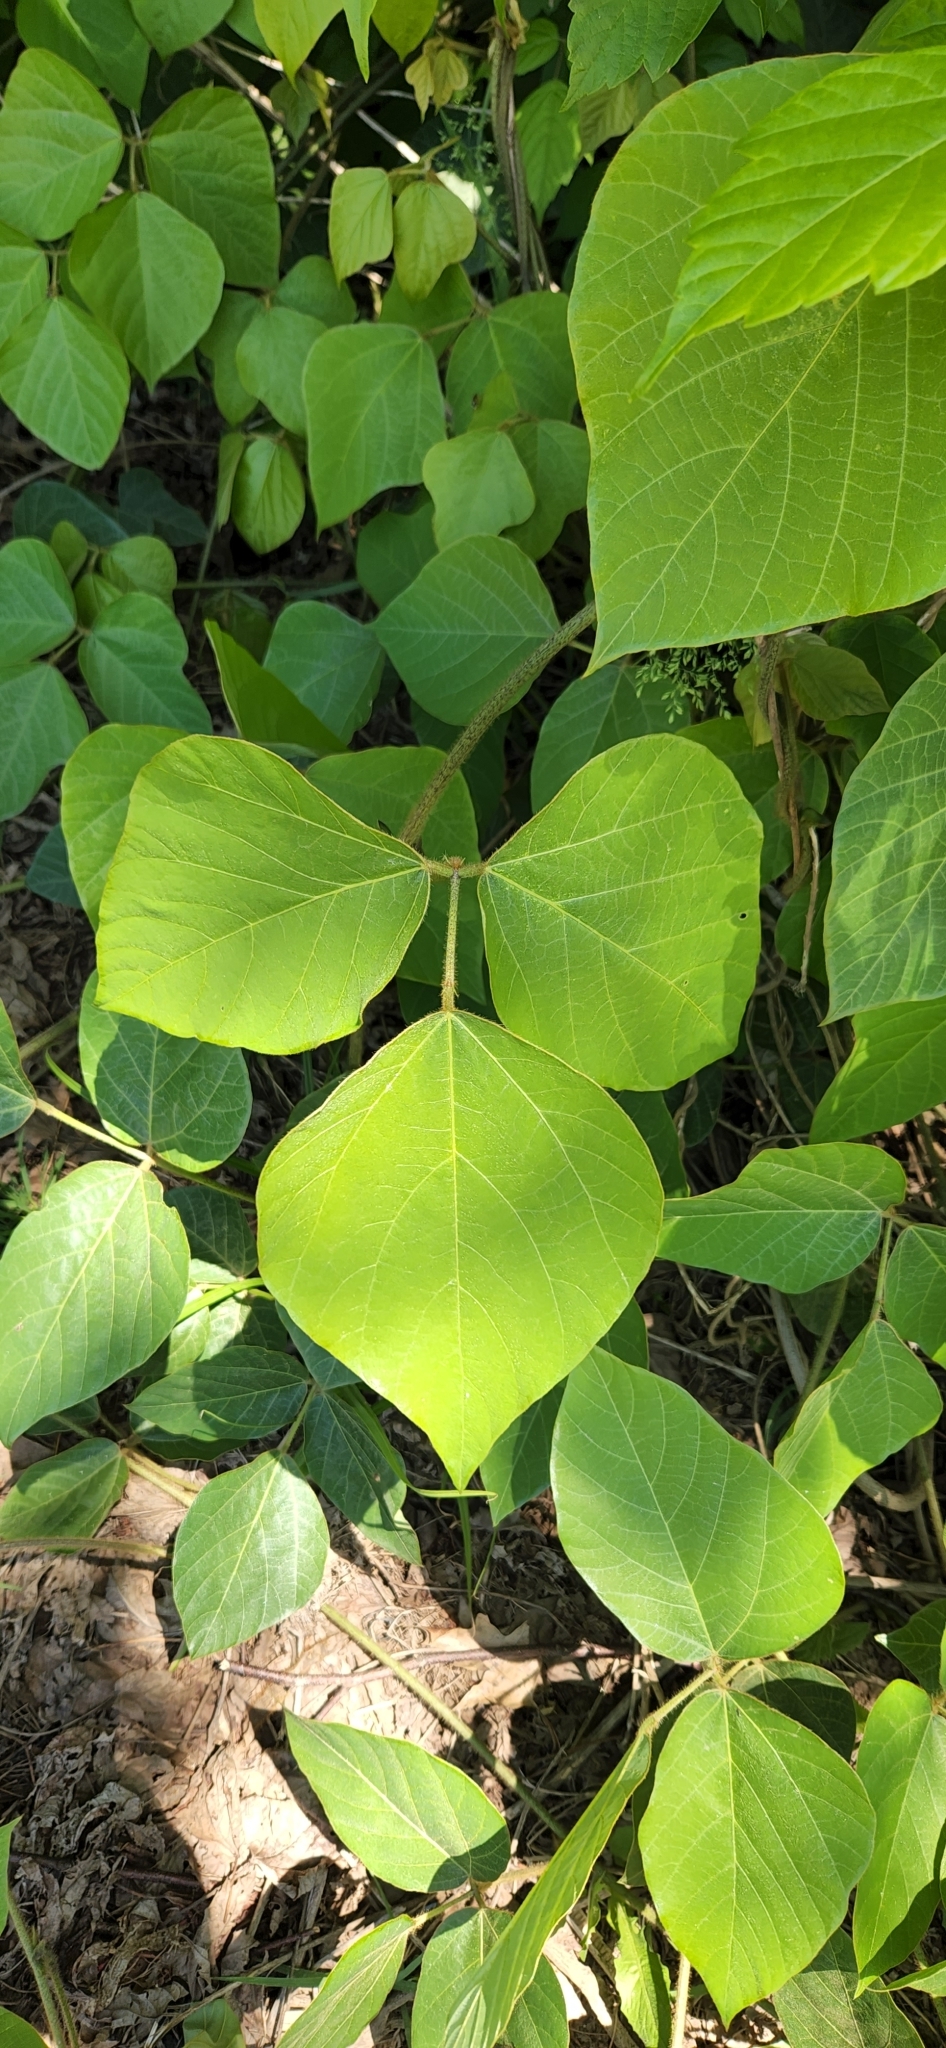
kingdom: Plantae
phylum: Tracheophyta
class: Magnoliopsida
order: Fabales
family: Fabaceae
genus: Pueraria
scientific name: Pueraria montana
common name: Kudzu
